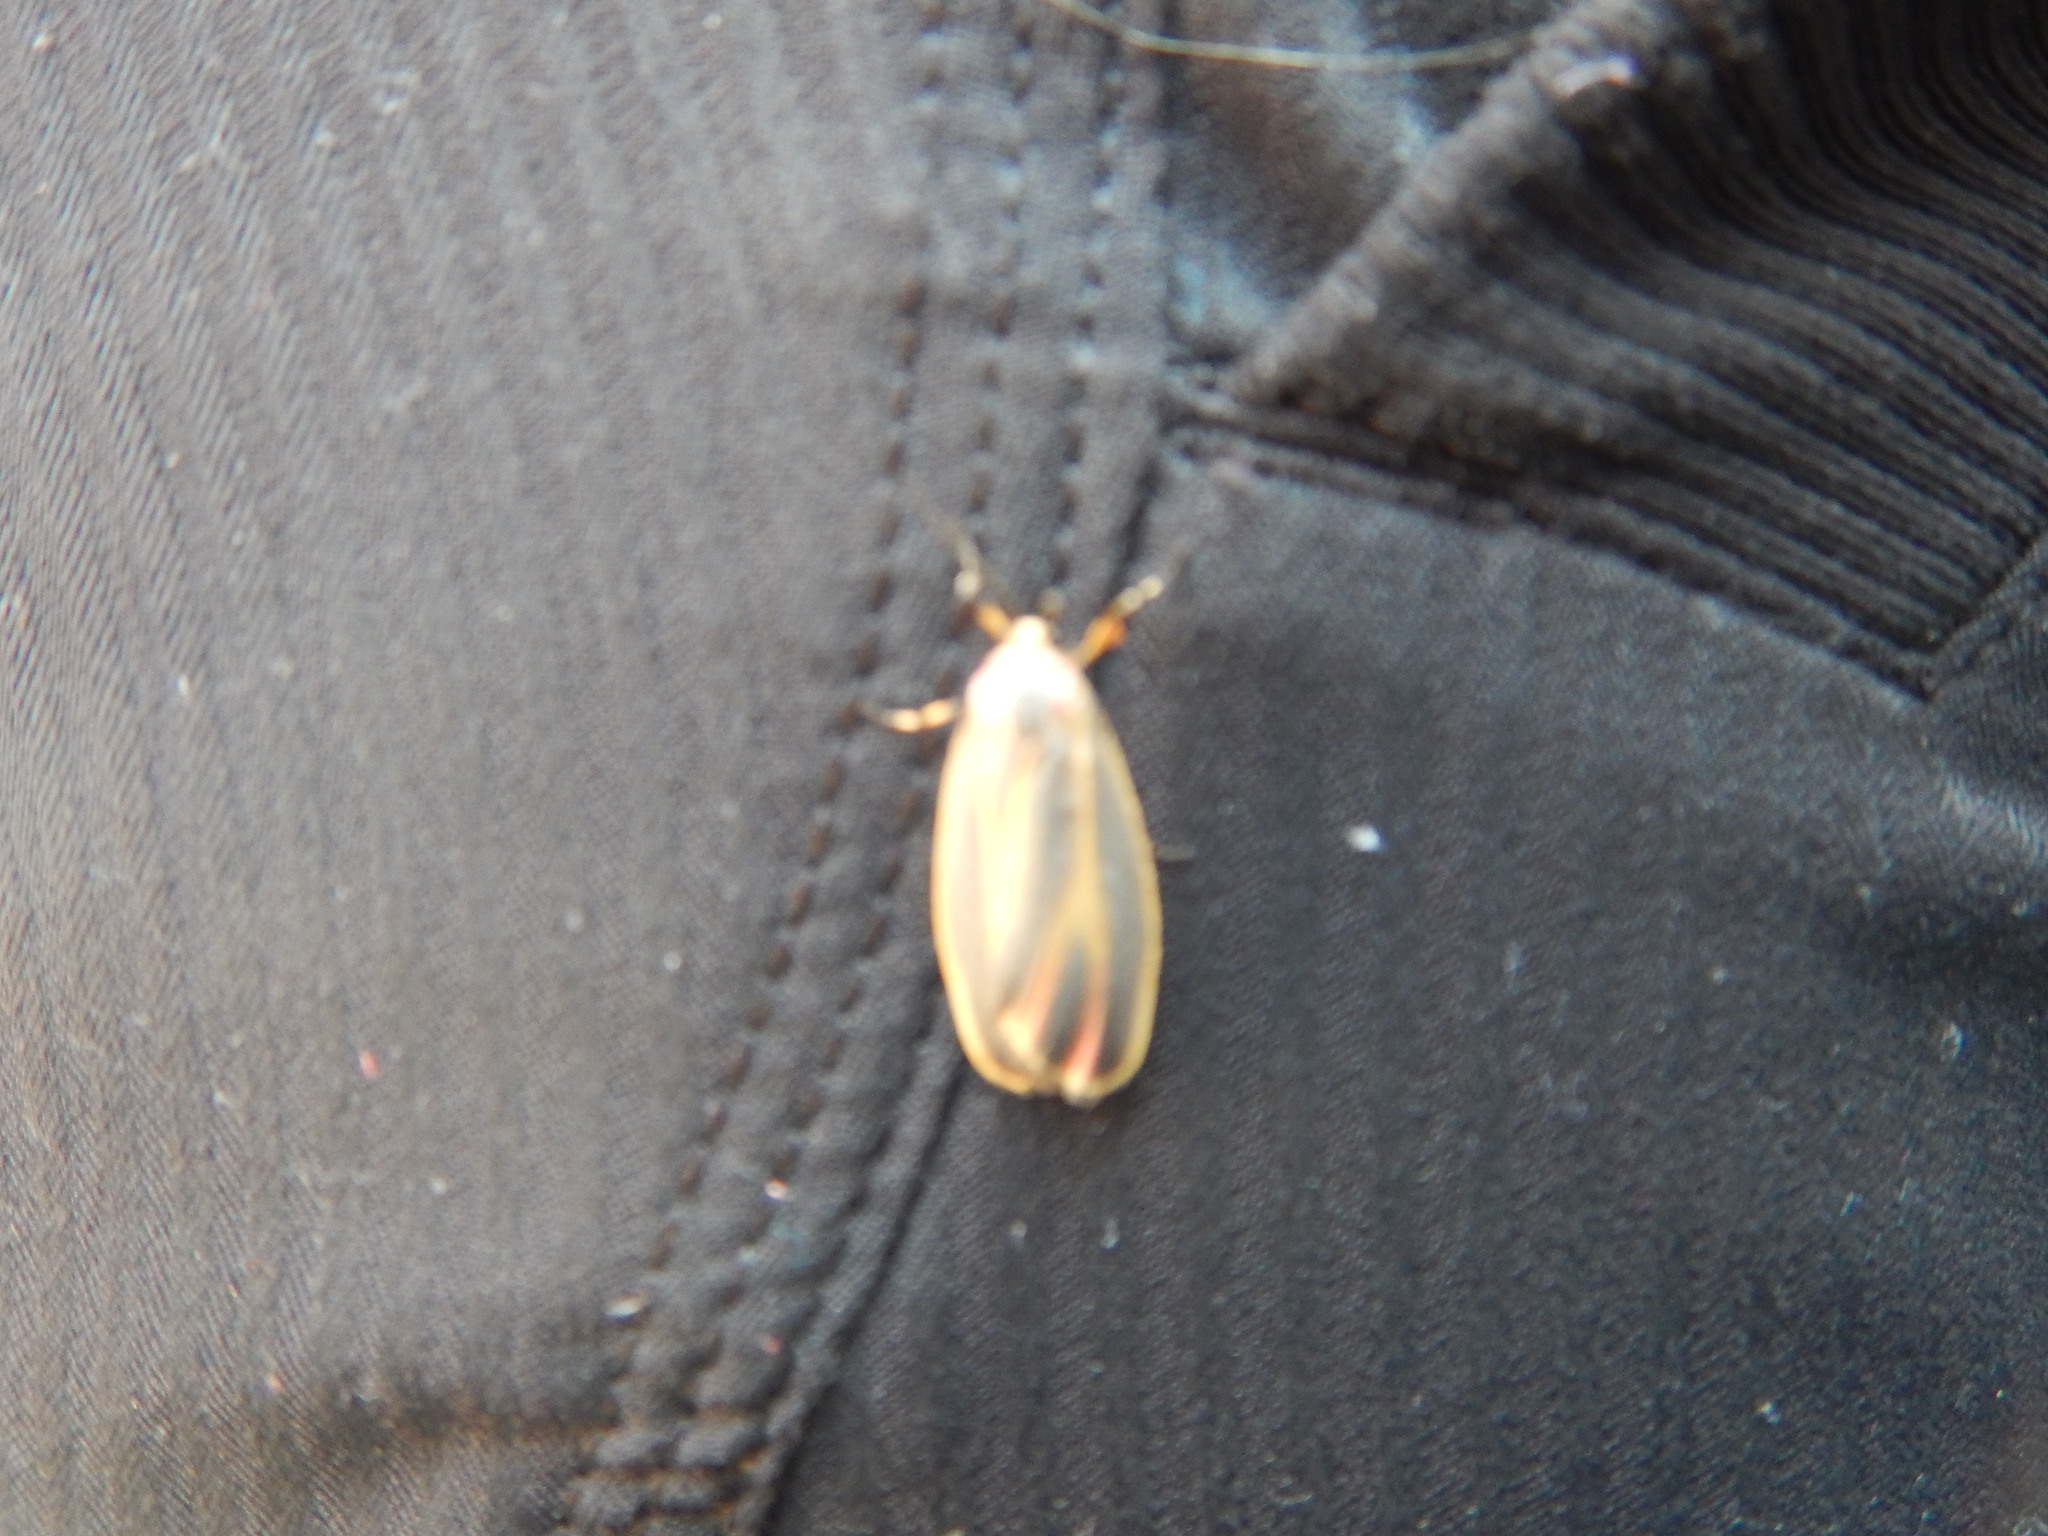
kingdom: Animalia
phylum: Arthropoda
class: Insecta
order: Lepidoptera
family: Erebidae
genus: Hypoprepia
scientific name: Hypoprepia fucosa
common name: Painted lichen moth
